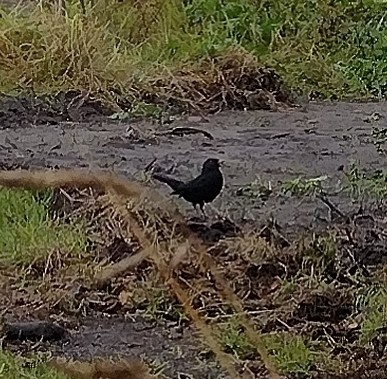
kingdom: Animalia
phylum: Chordata
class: Aves
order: Passeriformes
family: Turdidae
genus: Turdus
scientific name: Turdus merula
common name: Common blackbird
